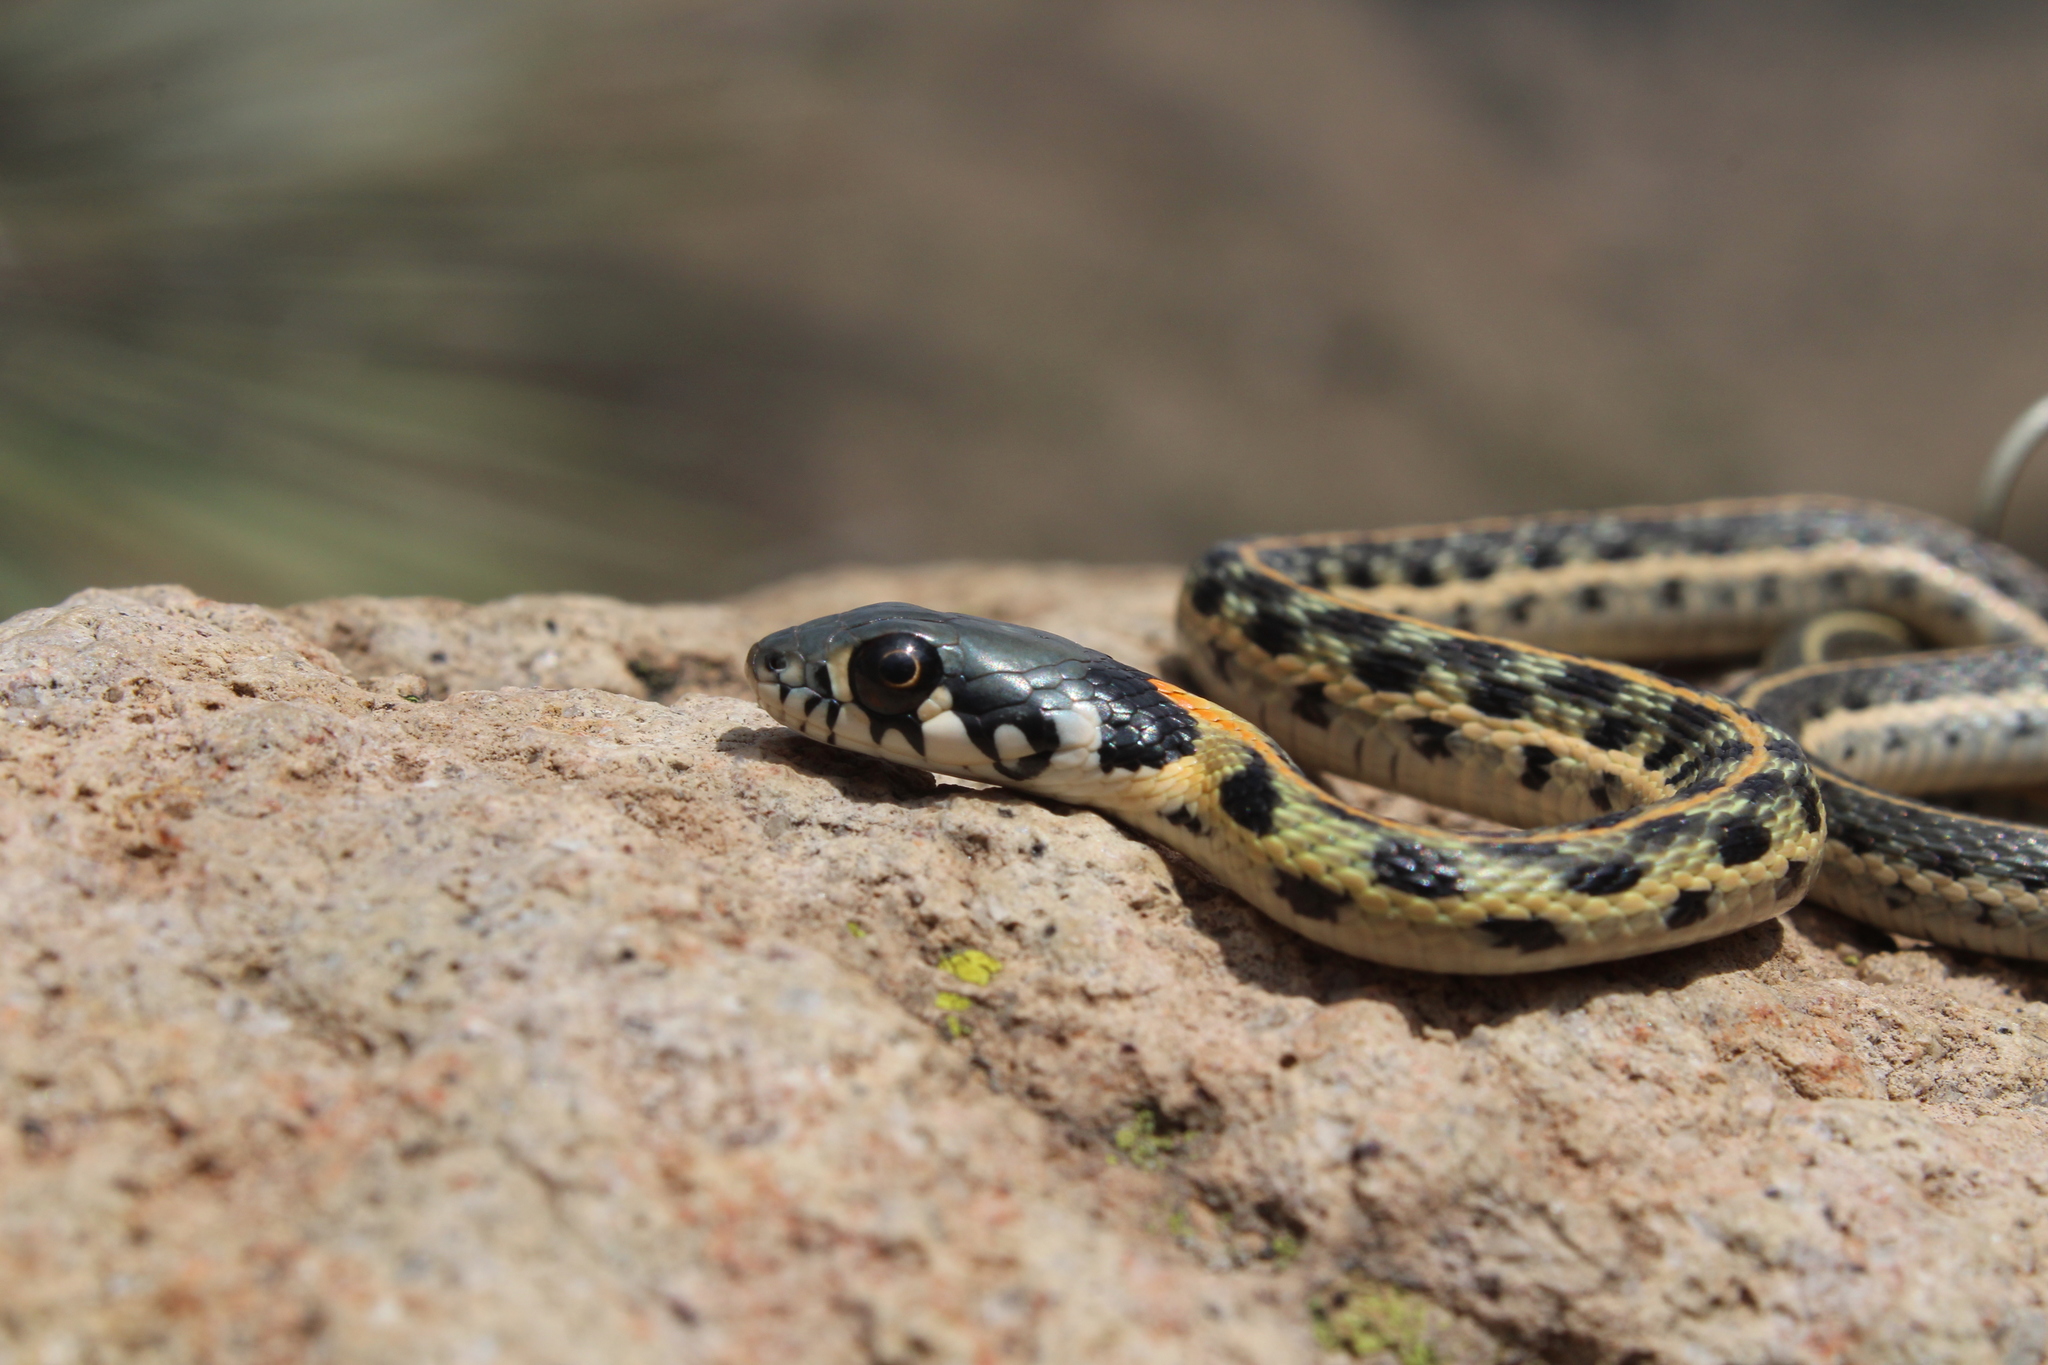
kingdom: Animalia
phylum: Chordata
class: Squamata
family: Colubridae
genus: Thamnophis
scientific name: Thamnophis cyrtopsis
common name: Black-necked gartersnake
